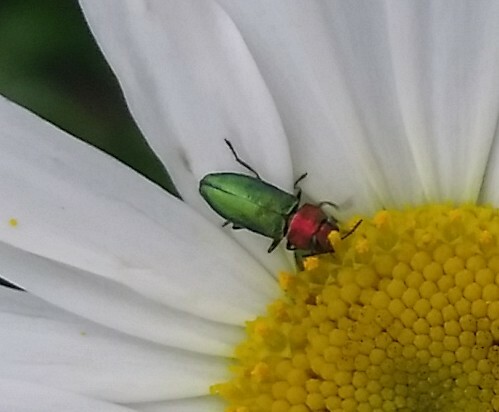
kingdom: Animalia
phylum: Arthropoda
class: Insecta
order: Coleoptera
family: Buprestidae
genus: Anthaxia
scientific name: Anthaxia nitidula
